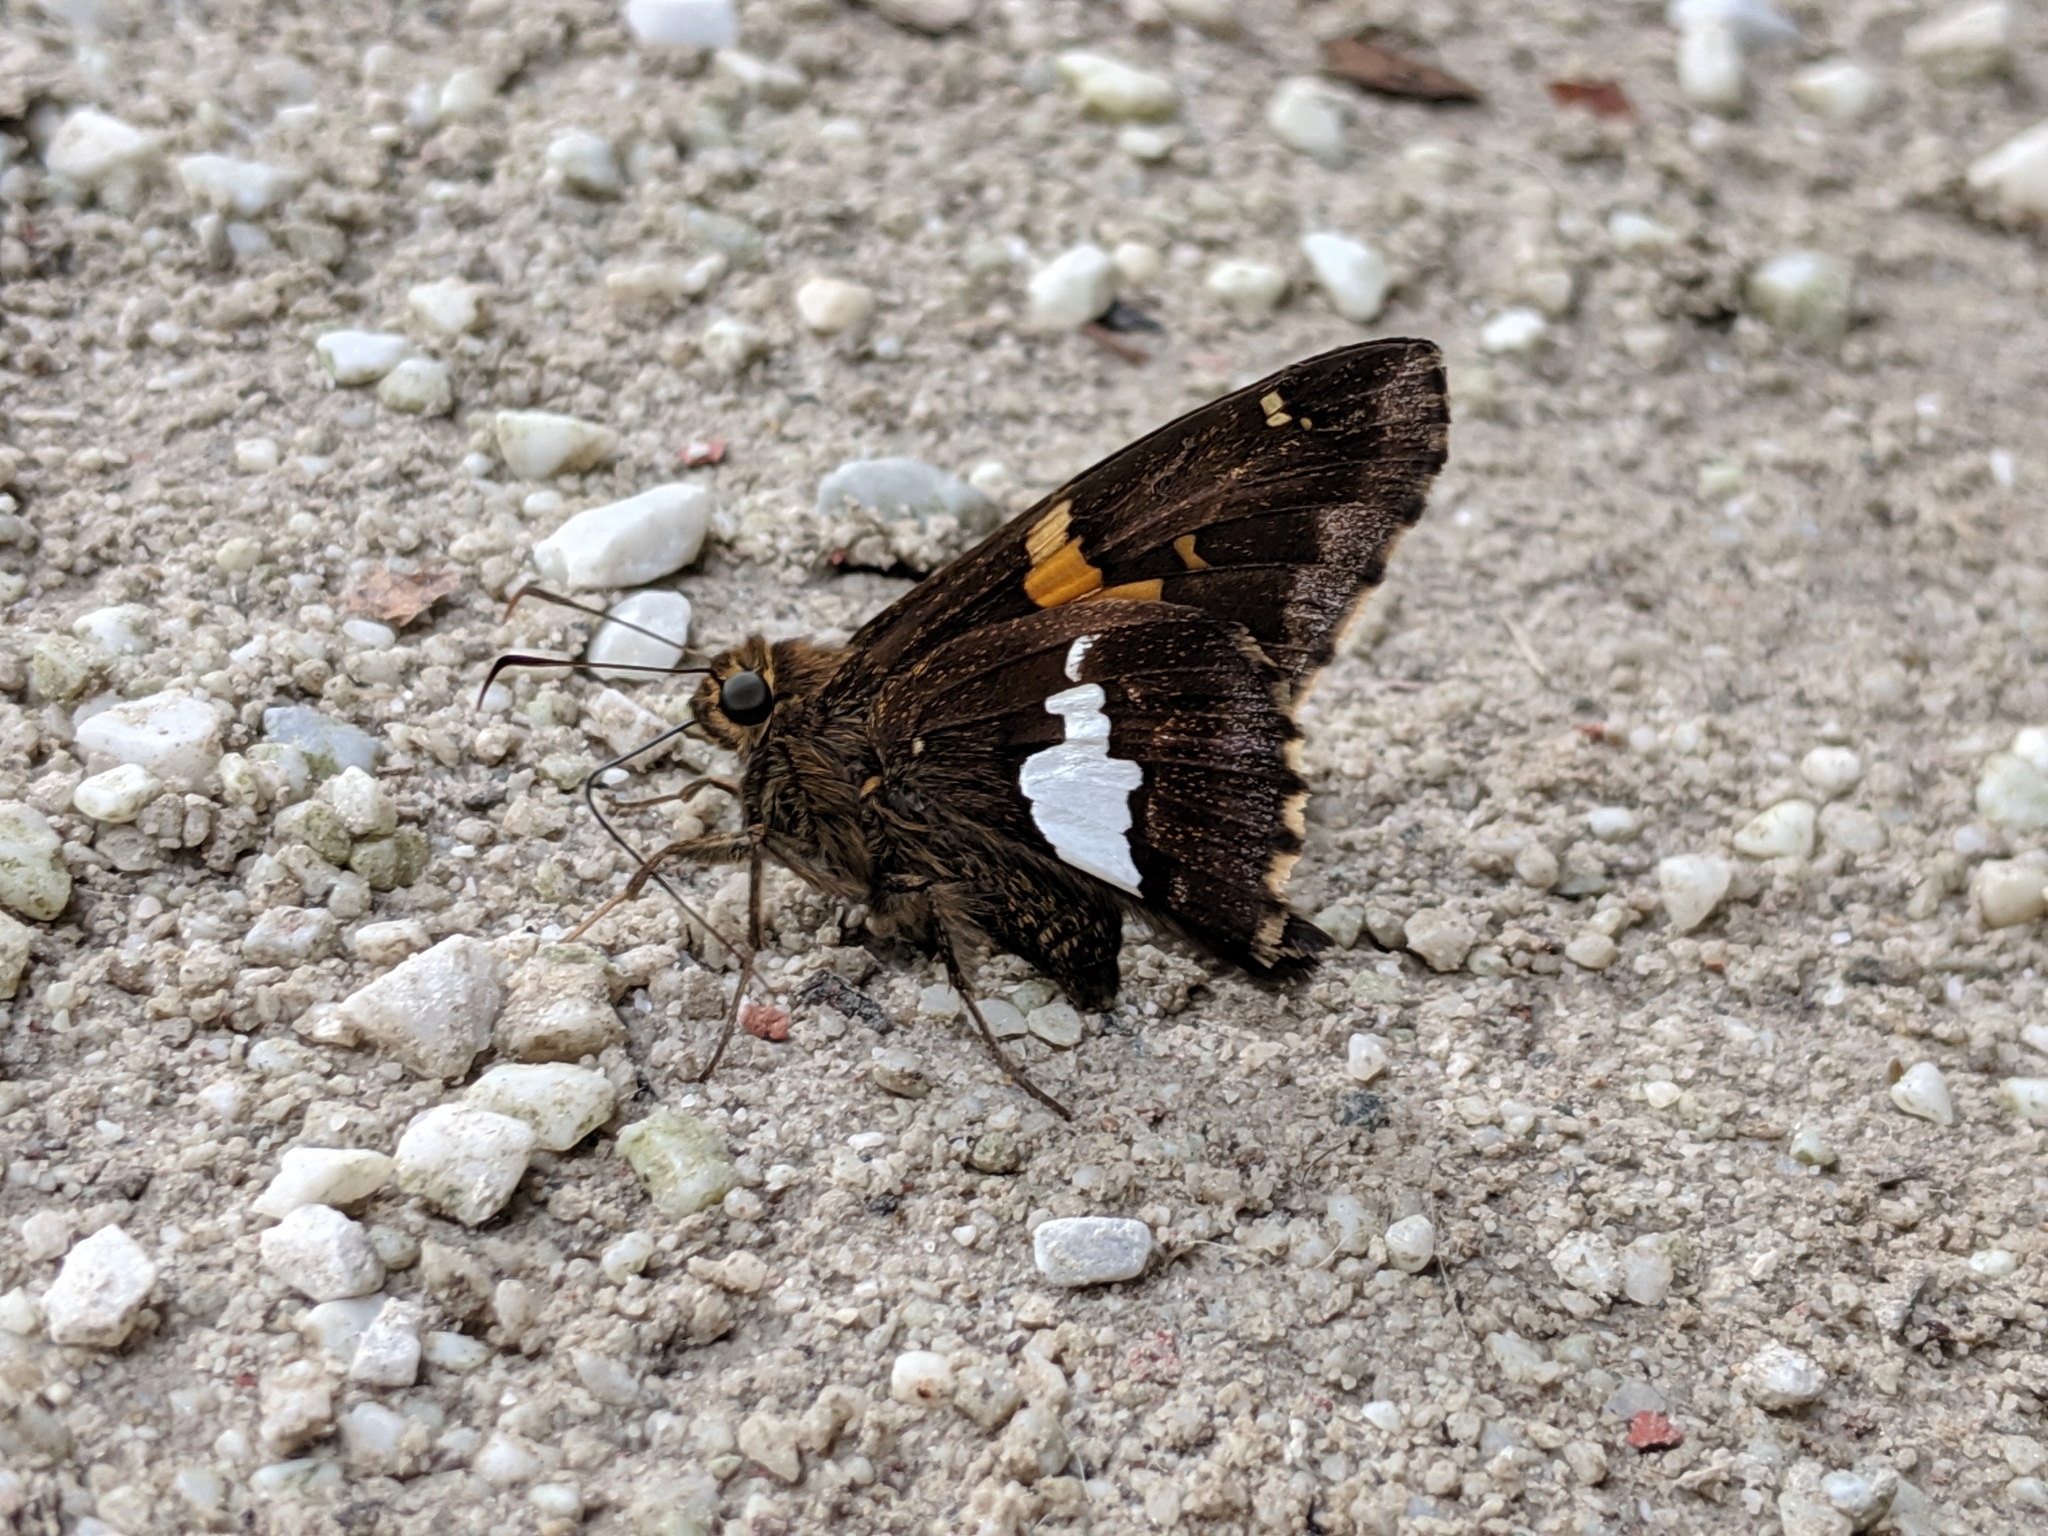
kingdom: Animalia
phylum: Arthropoda
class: Insecta
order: Lepidoptera
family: Hesperiidae
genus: Epargyreus
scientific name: Epargyreus clarus
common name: Silver-spotted skipper
